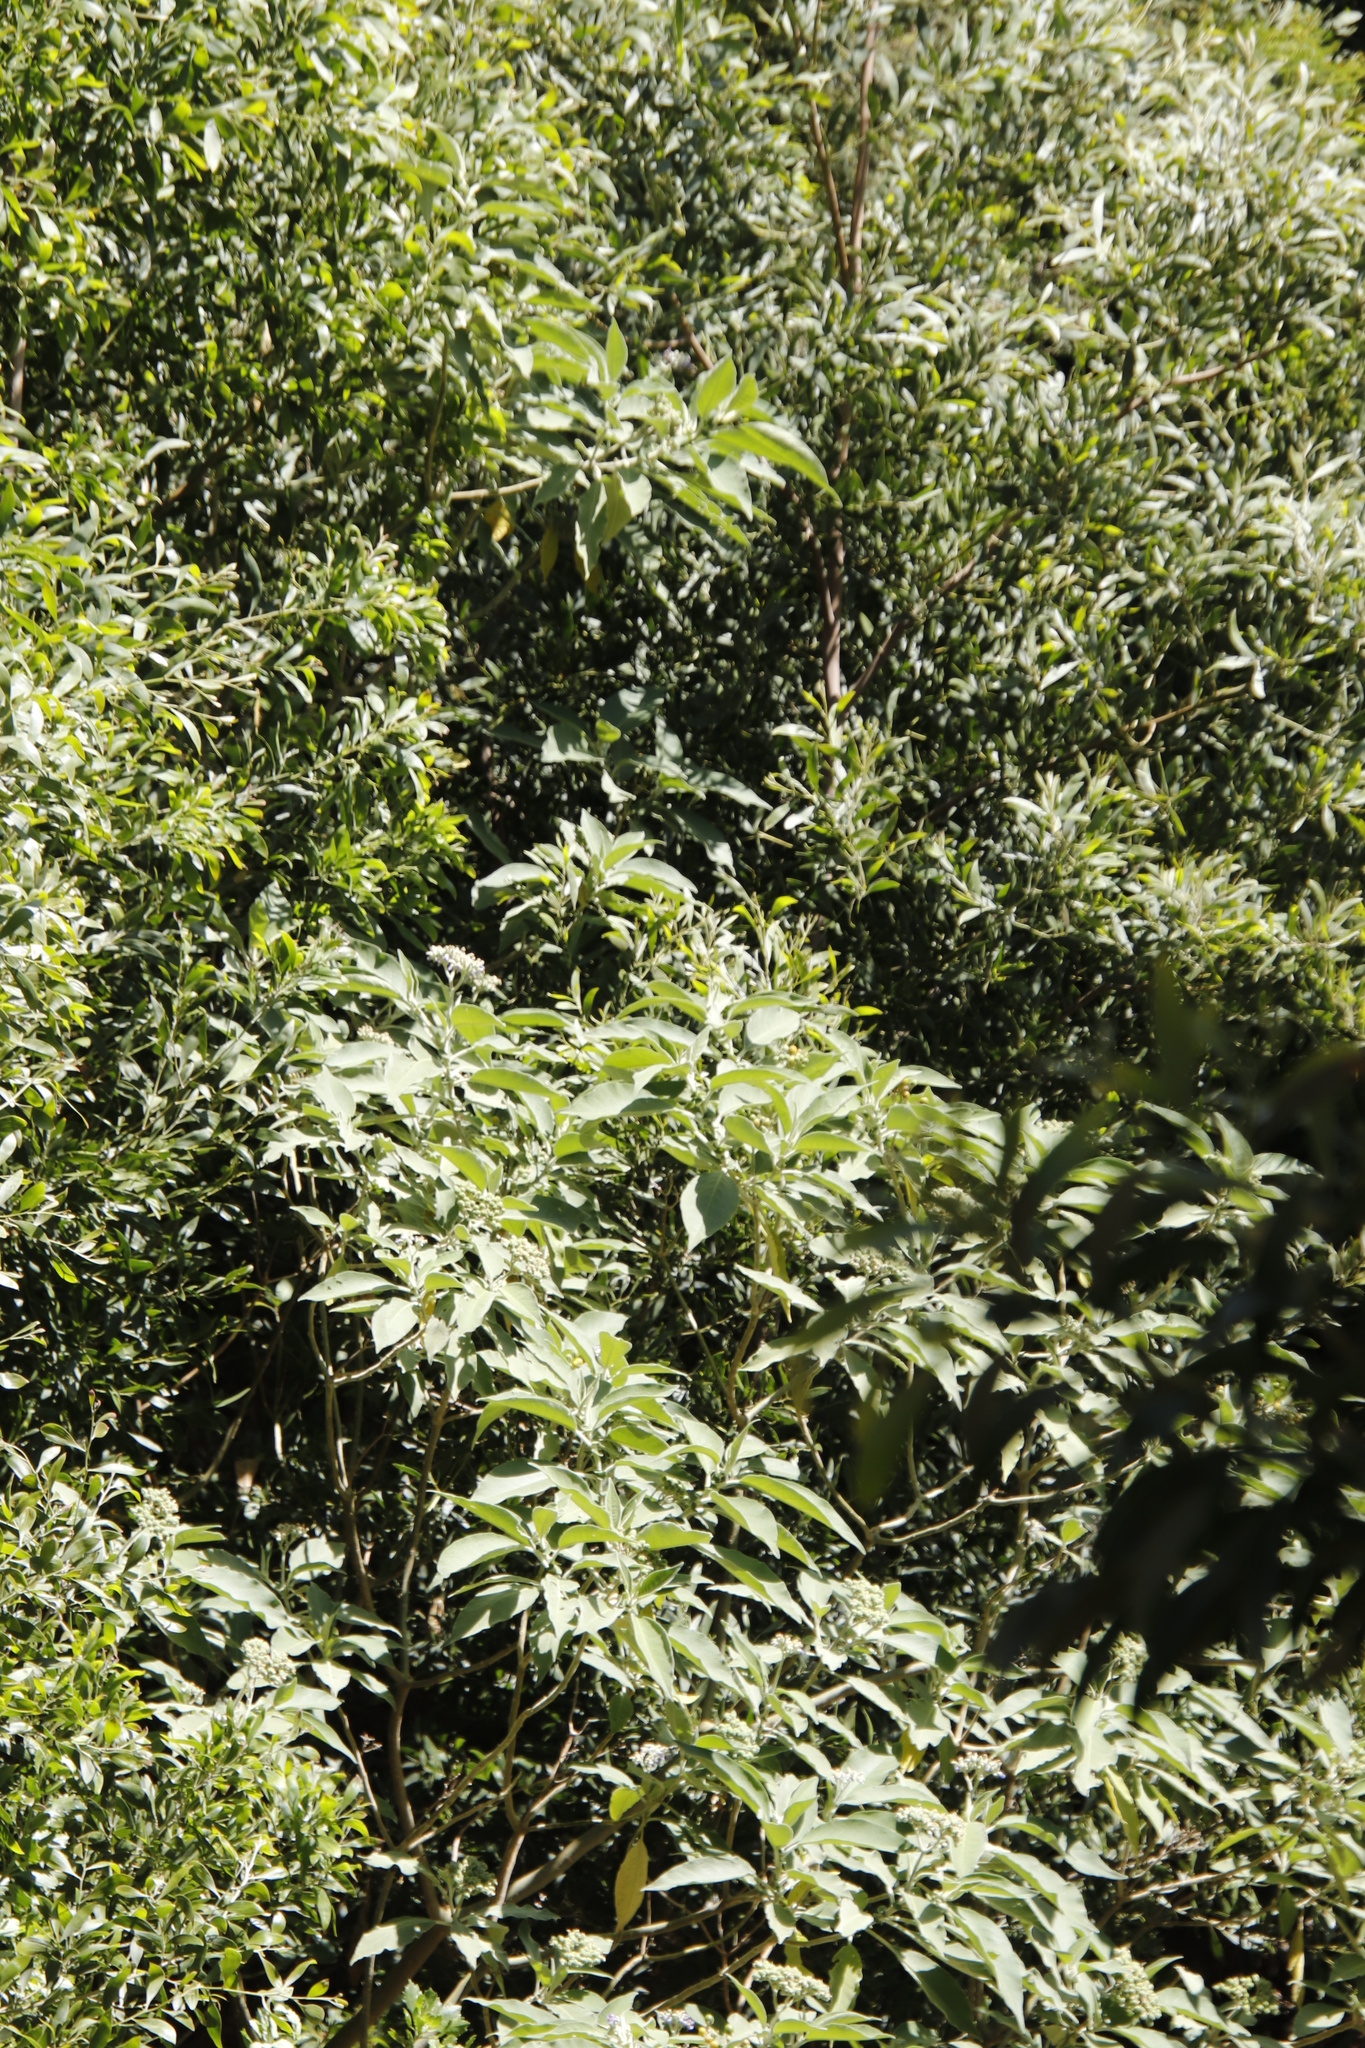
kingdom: Plantae
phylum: Tracheophyta
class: Magnoliopsida
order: Solanales
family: Solanaceae
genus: Solanum
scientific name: Solanum mauritianum
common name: Earleaf nightshade
